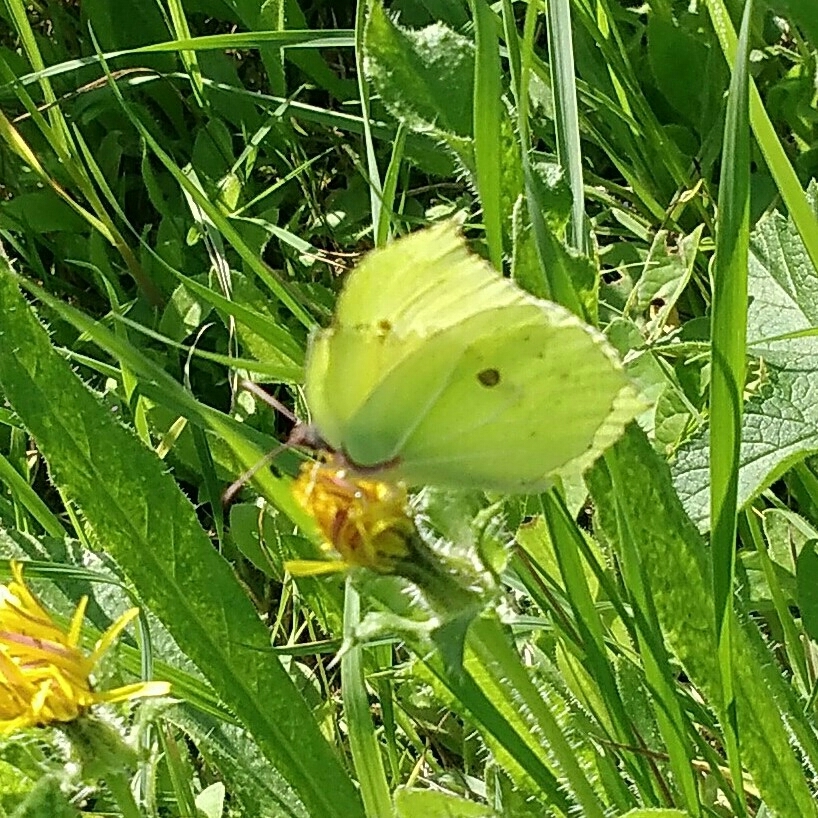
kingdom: Animalia
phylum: Arthropoda
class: Insecta
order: Lepidoptera
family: Pieridae
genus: Gonepteryx
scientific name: Gonepteryx rhamni
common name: Brimstone
